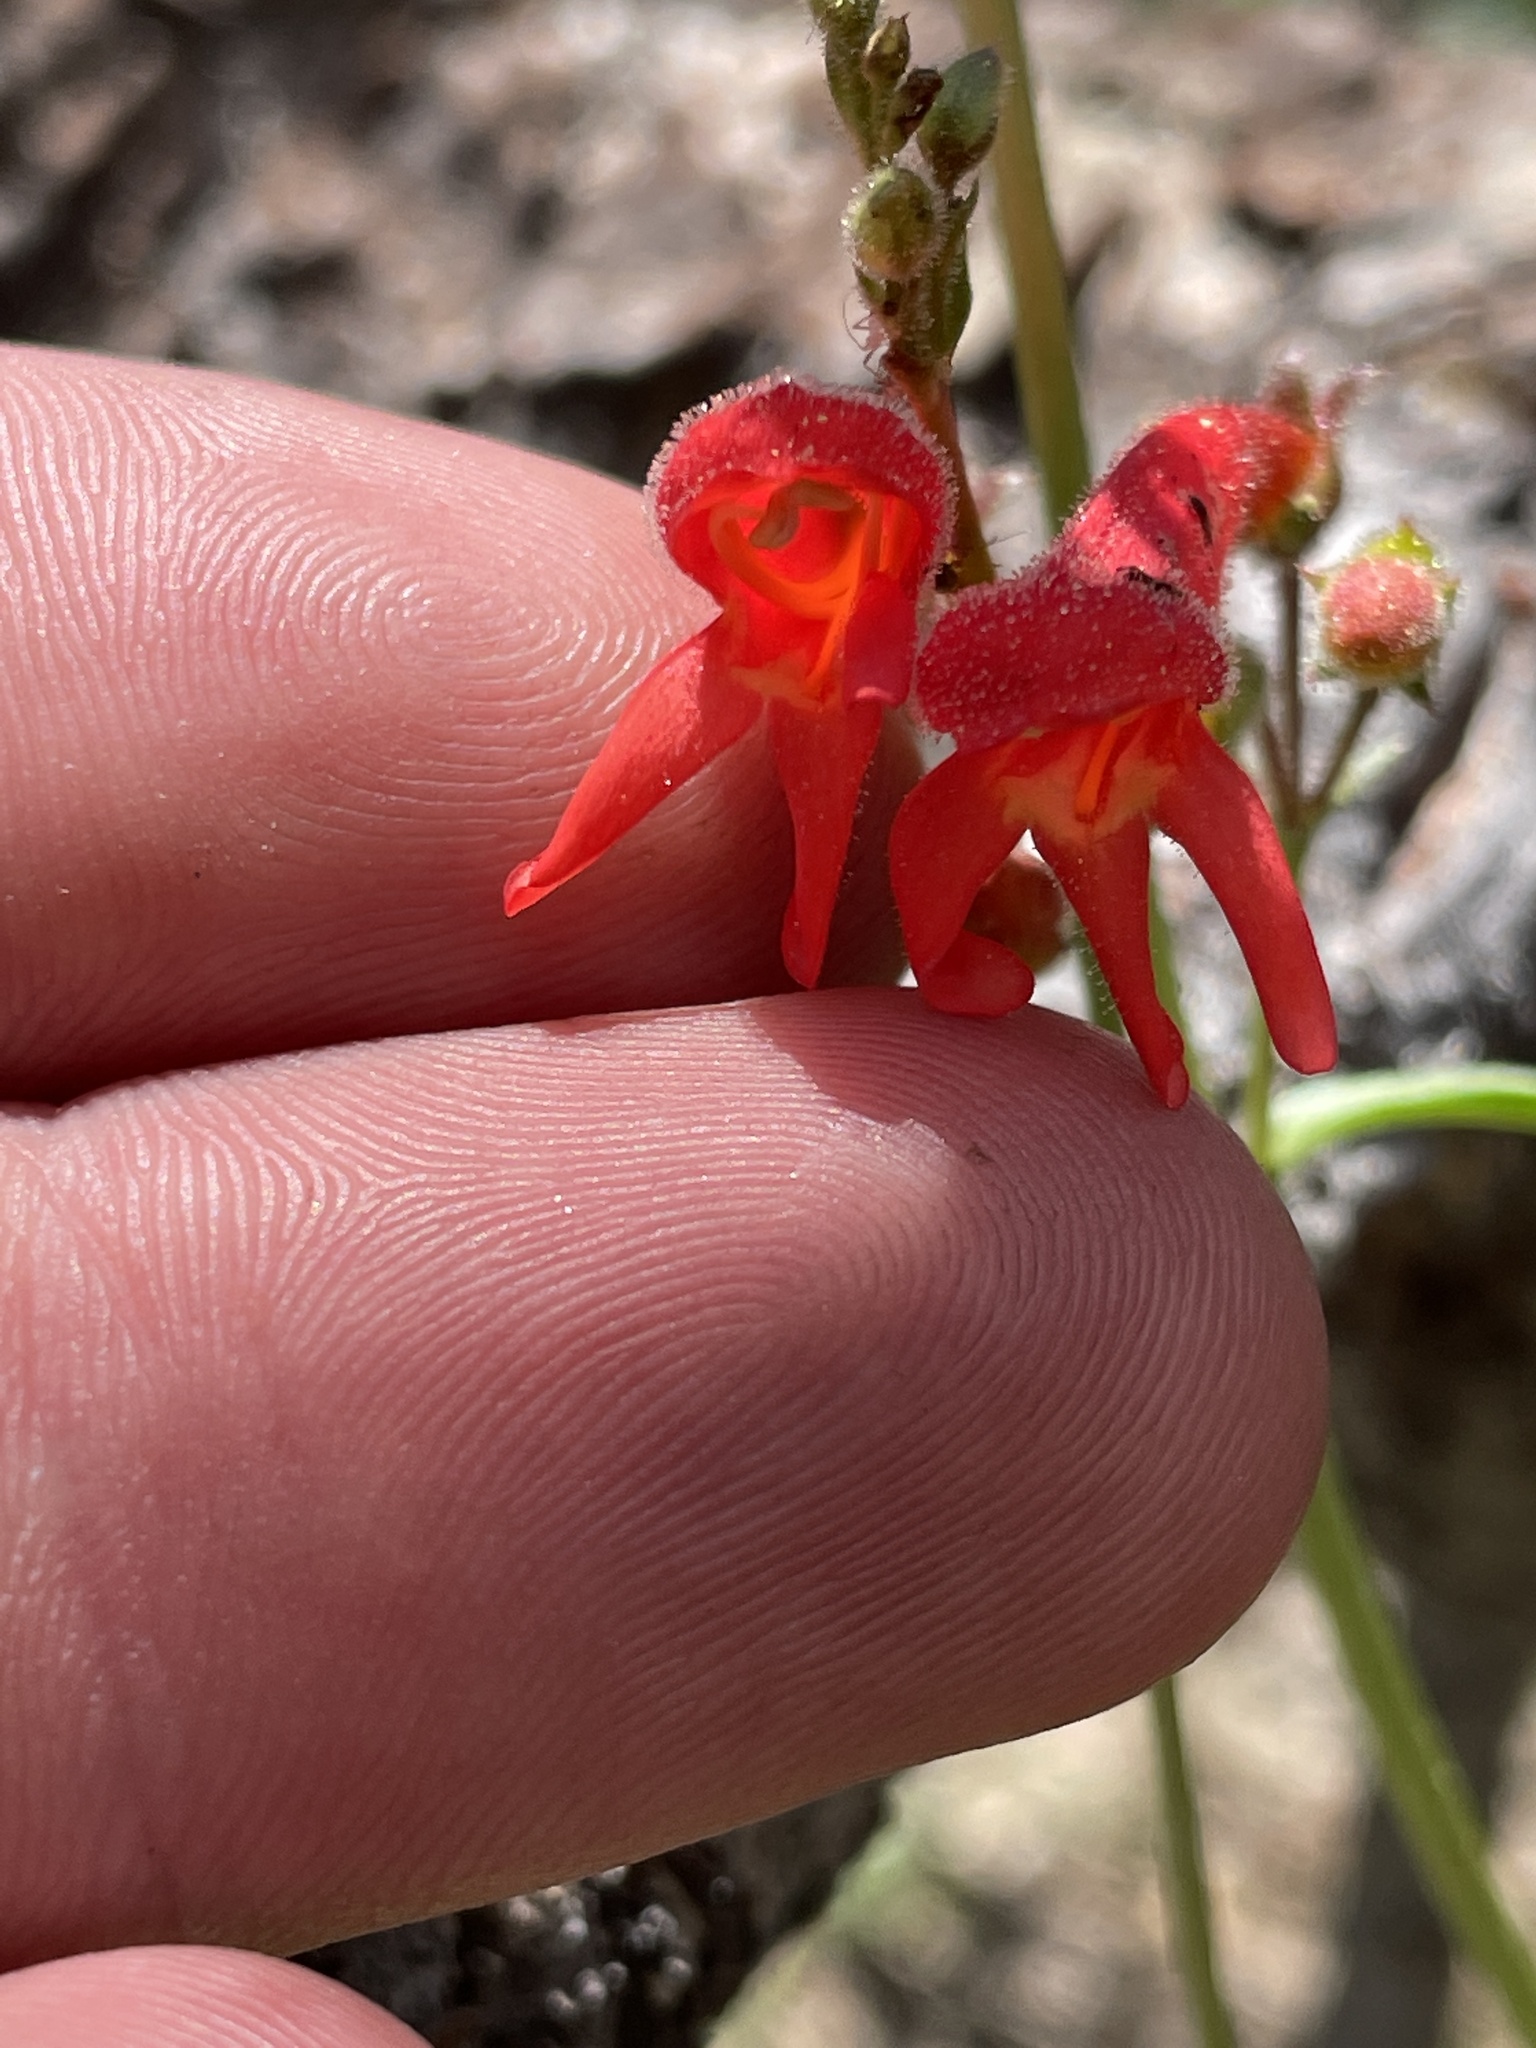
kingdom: Plantae
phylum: Tracheophyta
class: Magnoliopsida
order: Lamiales
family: Plantaginaceae
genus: Penstemon
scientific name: Penstemon rostriflorus
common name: Bridges's penstemon
